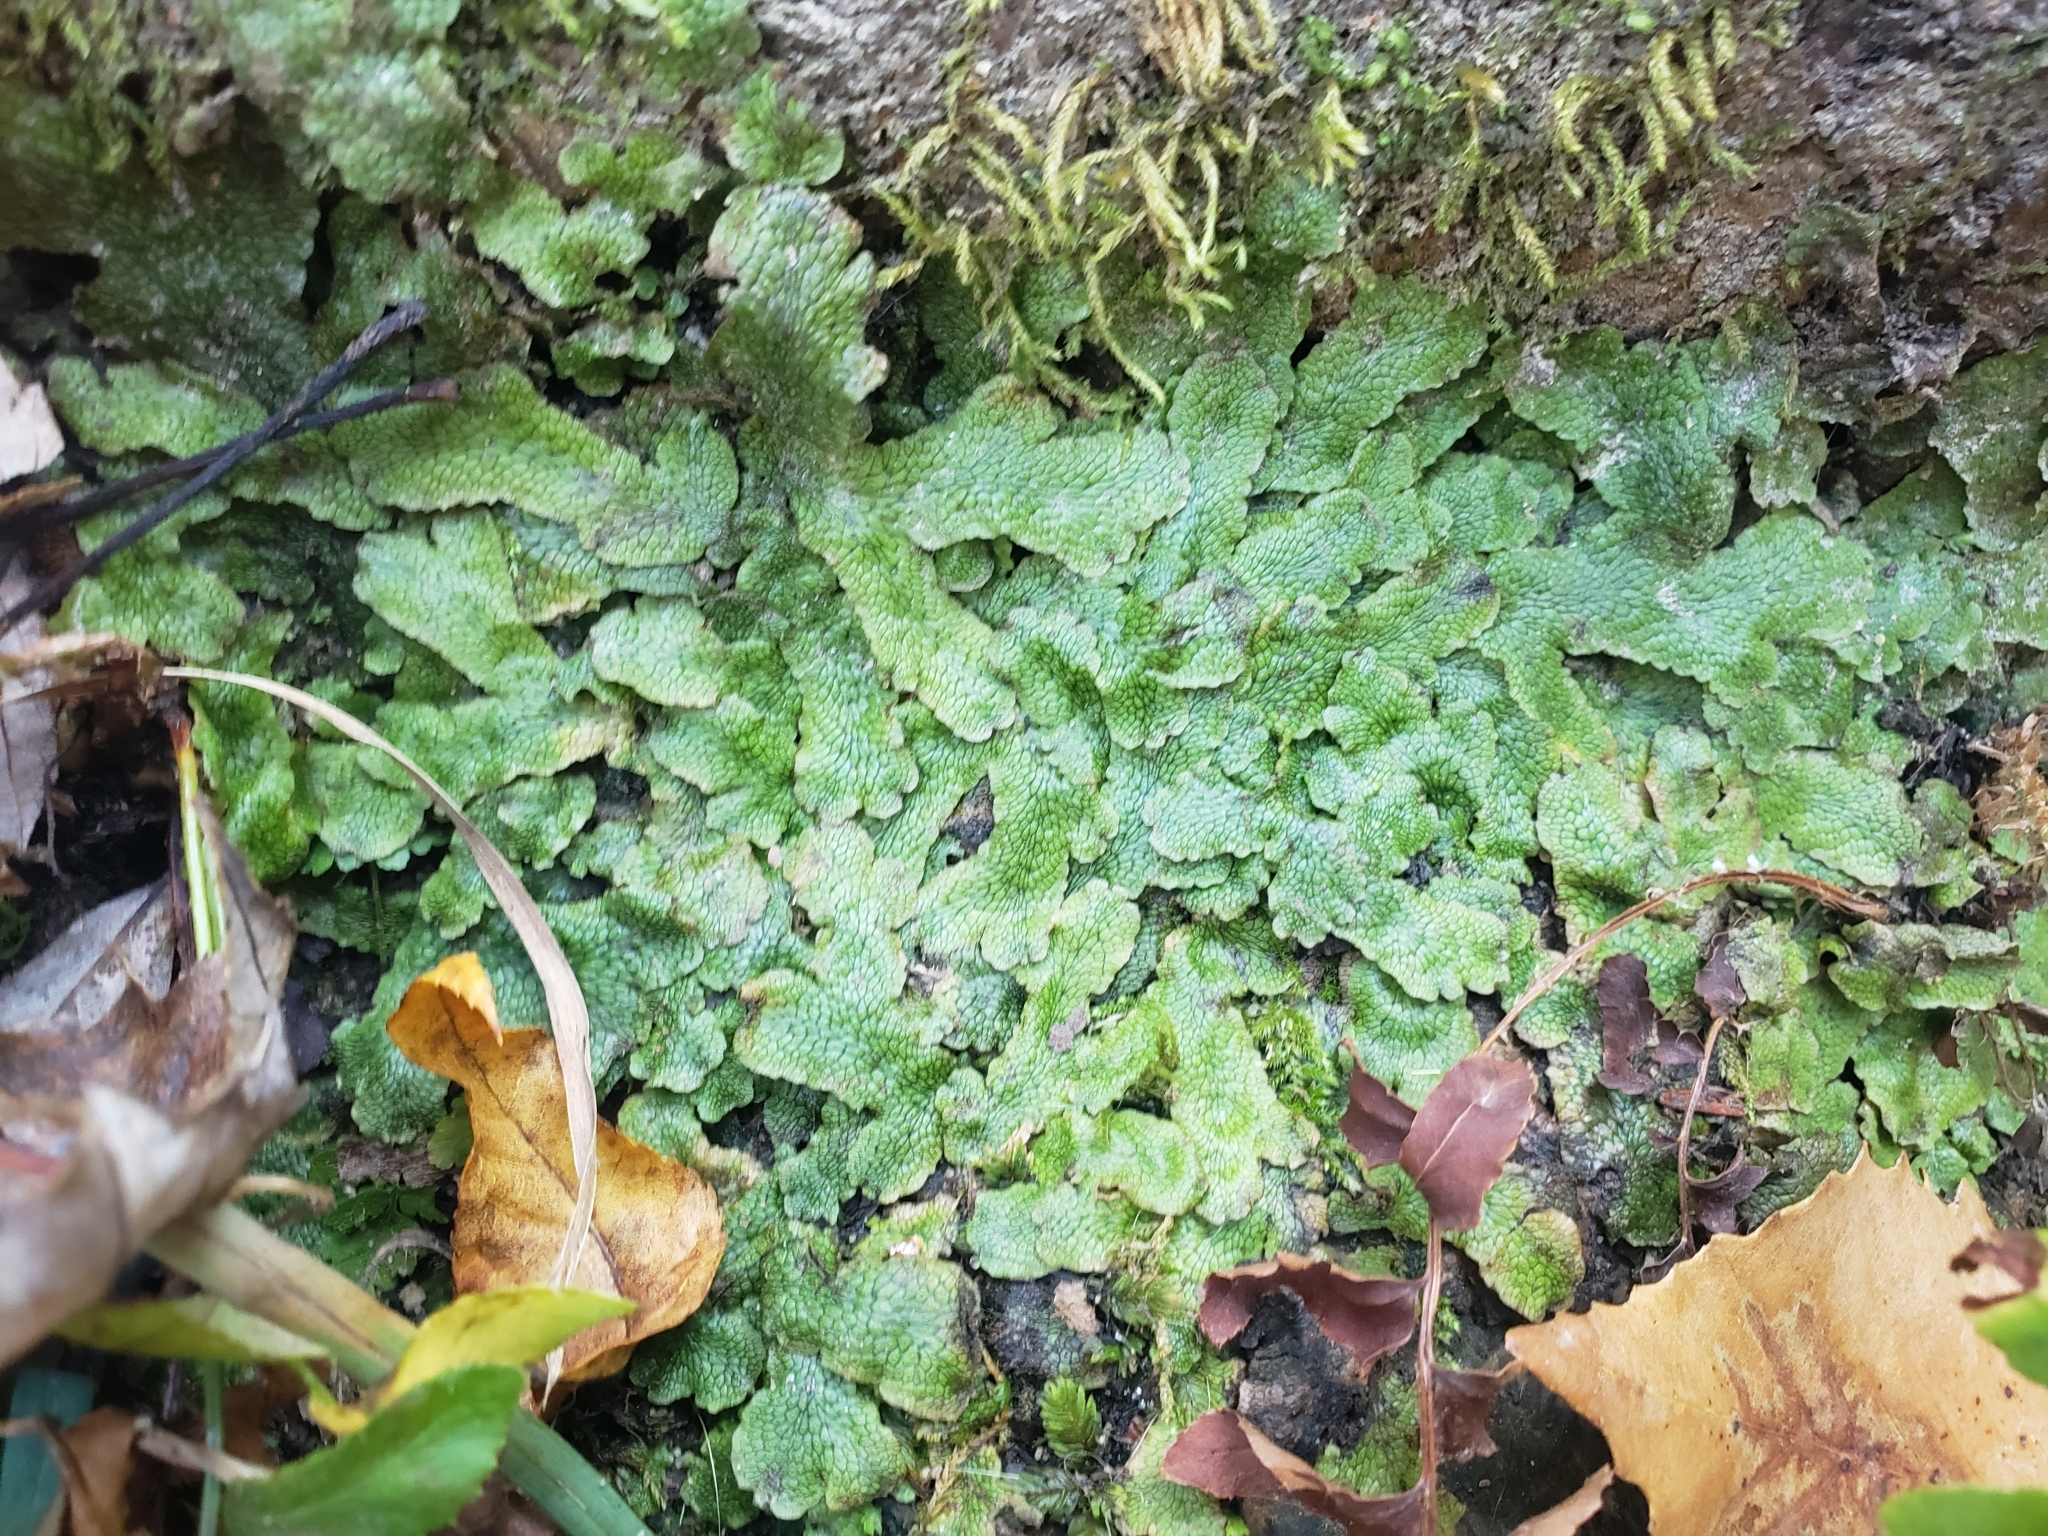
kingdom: Plantae
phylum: Marchantiophyta
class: Marchantiopsida
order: Marchantiales
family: Conocephalaceae
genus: Conocephalum
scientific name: Conocephalum salebrosum
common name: Cat-tongue liverwort
